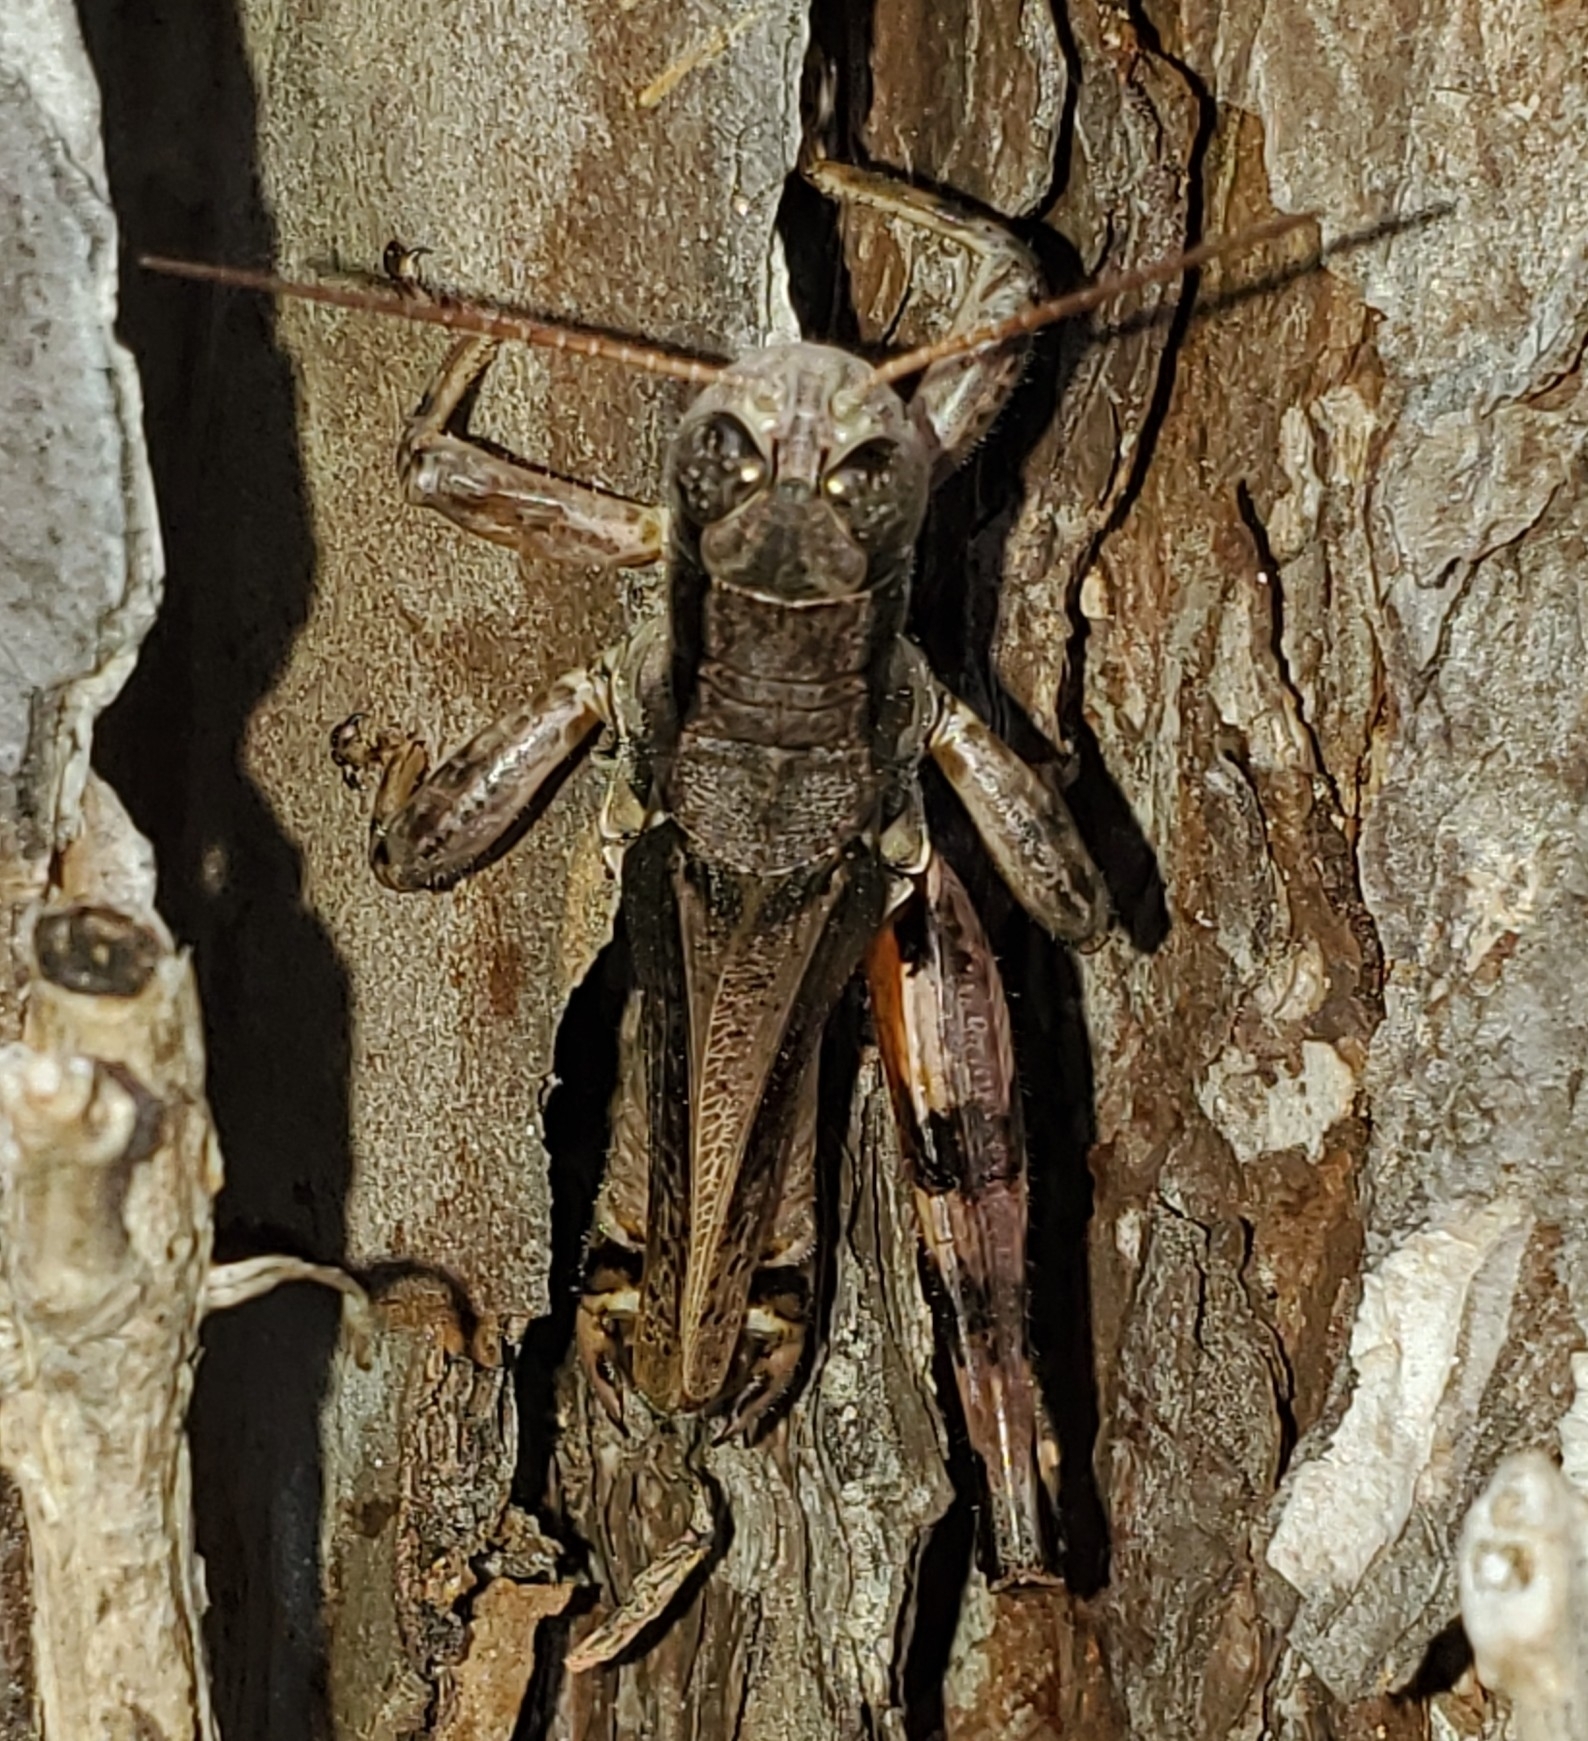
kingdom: Animalia
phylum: Arthropoda
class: Insecta
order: Orthoptera
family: Acrididae
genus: Melanoplus
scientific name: Melanoplus ponderosus
